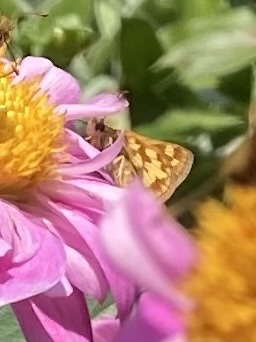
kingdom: Animalia
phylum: Arthropoda
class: Insecta
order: Lepidoptera
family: Hesperiidae
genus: Polites
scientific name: Polites coras
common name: Peck's skipper
